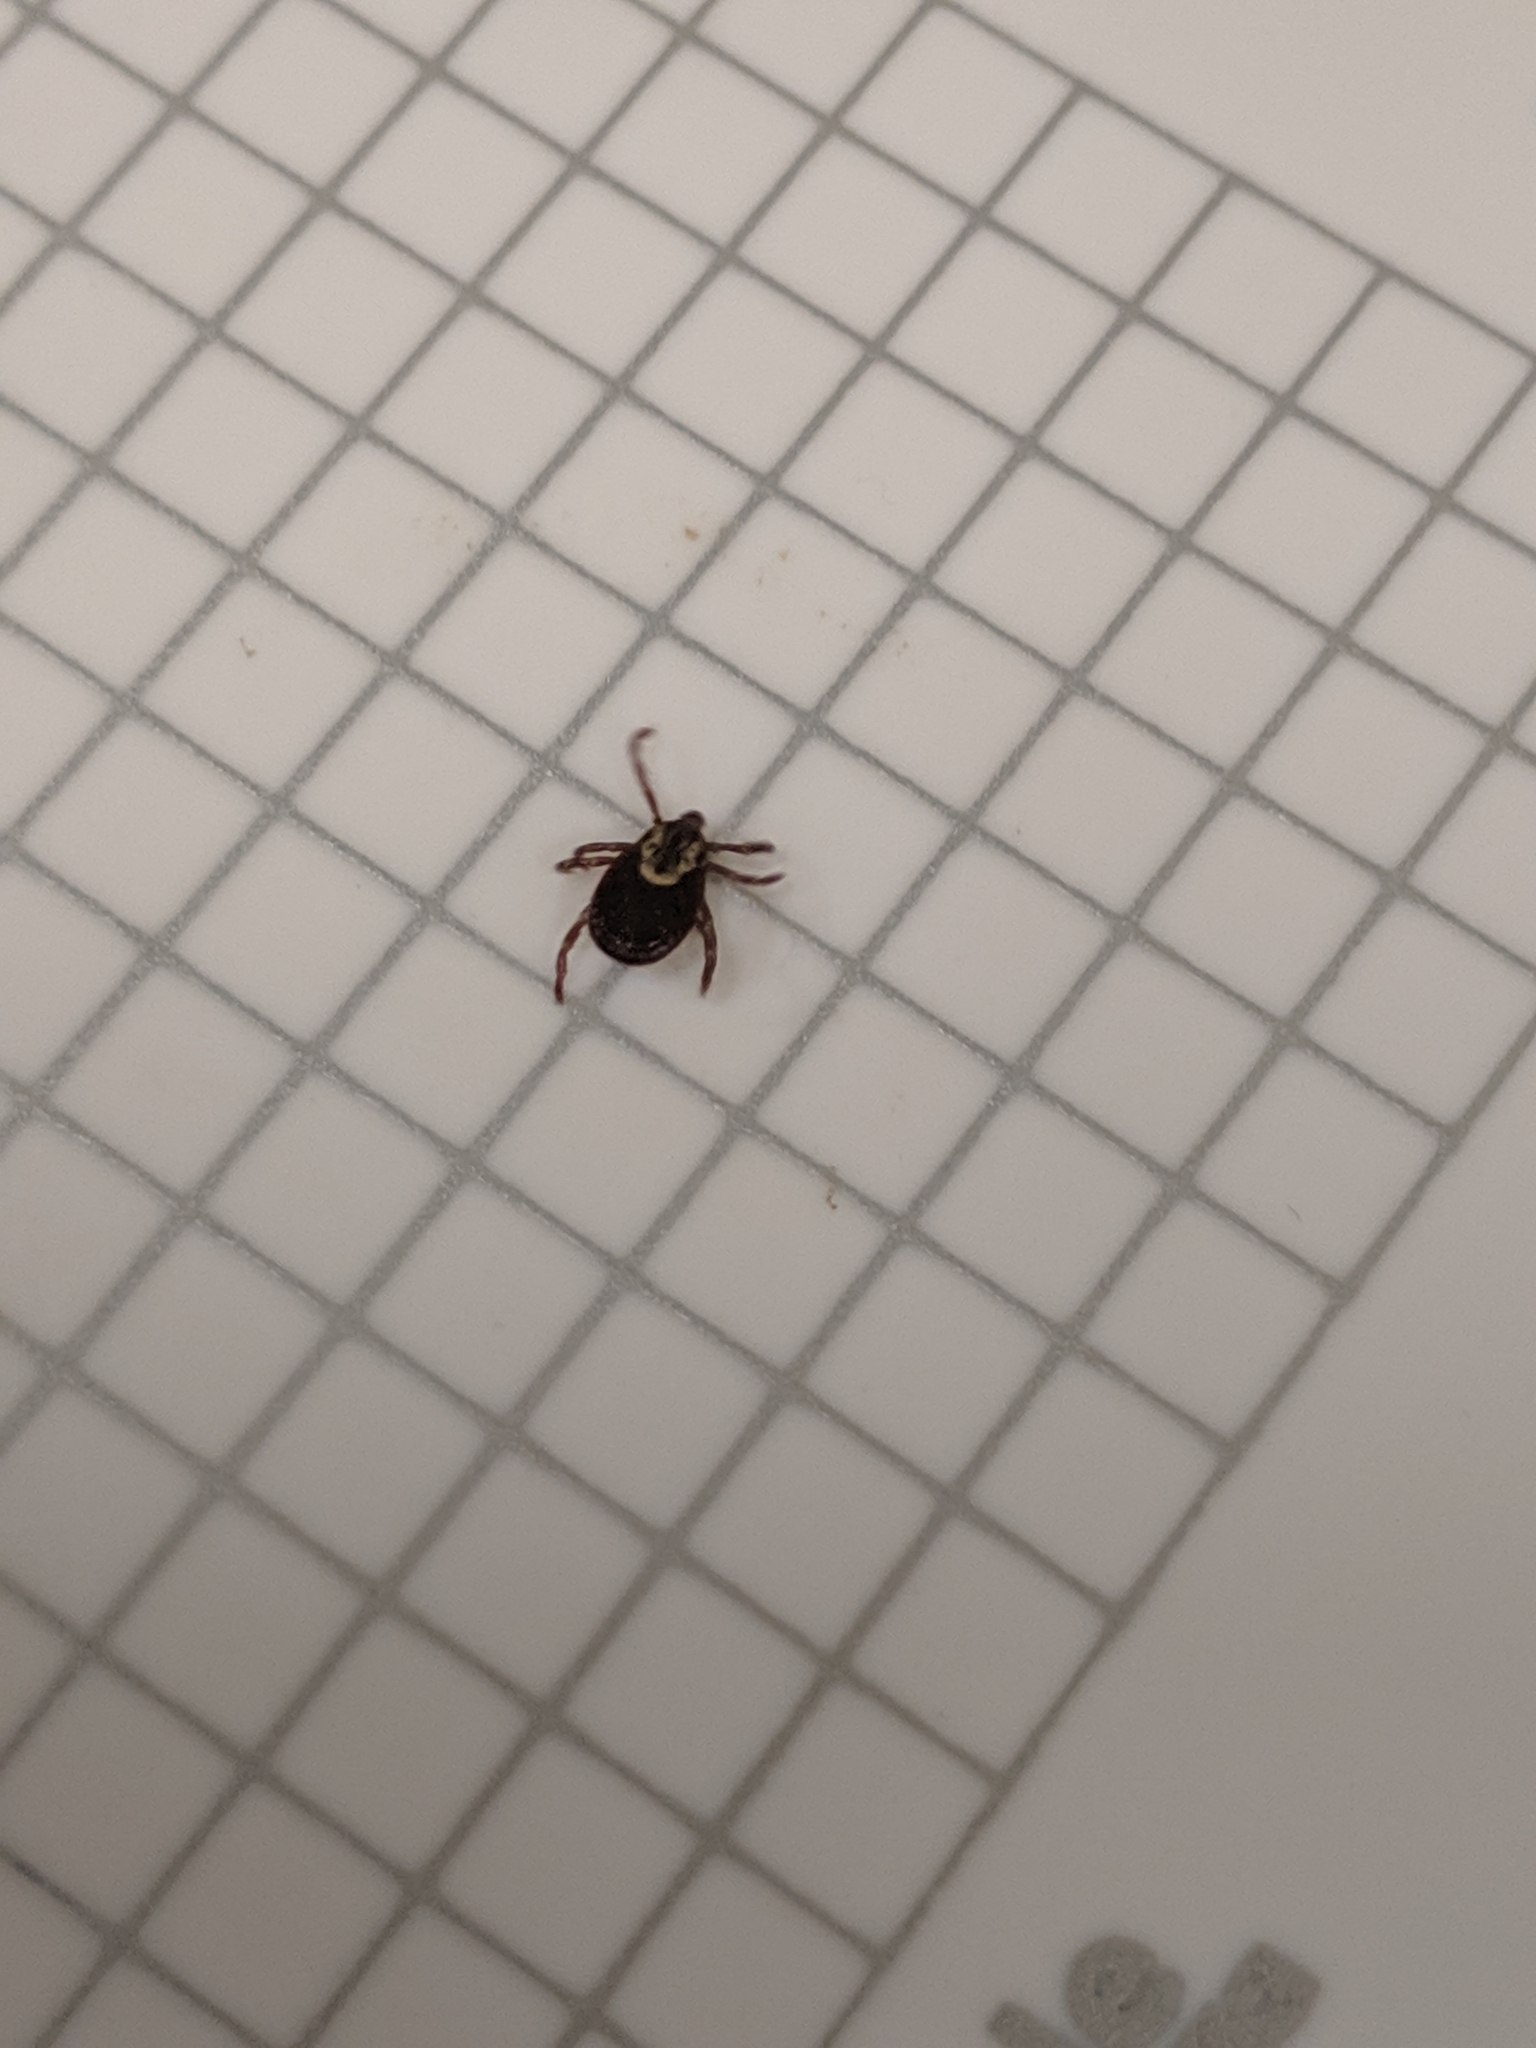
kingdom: Animalia
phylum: Arthropoda
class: Arachnida
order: Ixodida
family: Ixodidae
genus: Dermacentor
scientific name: Dermacentor variabilis
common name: American dog tick
